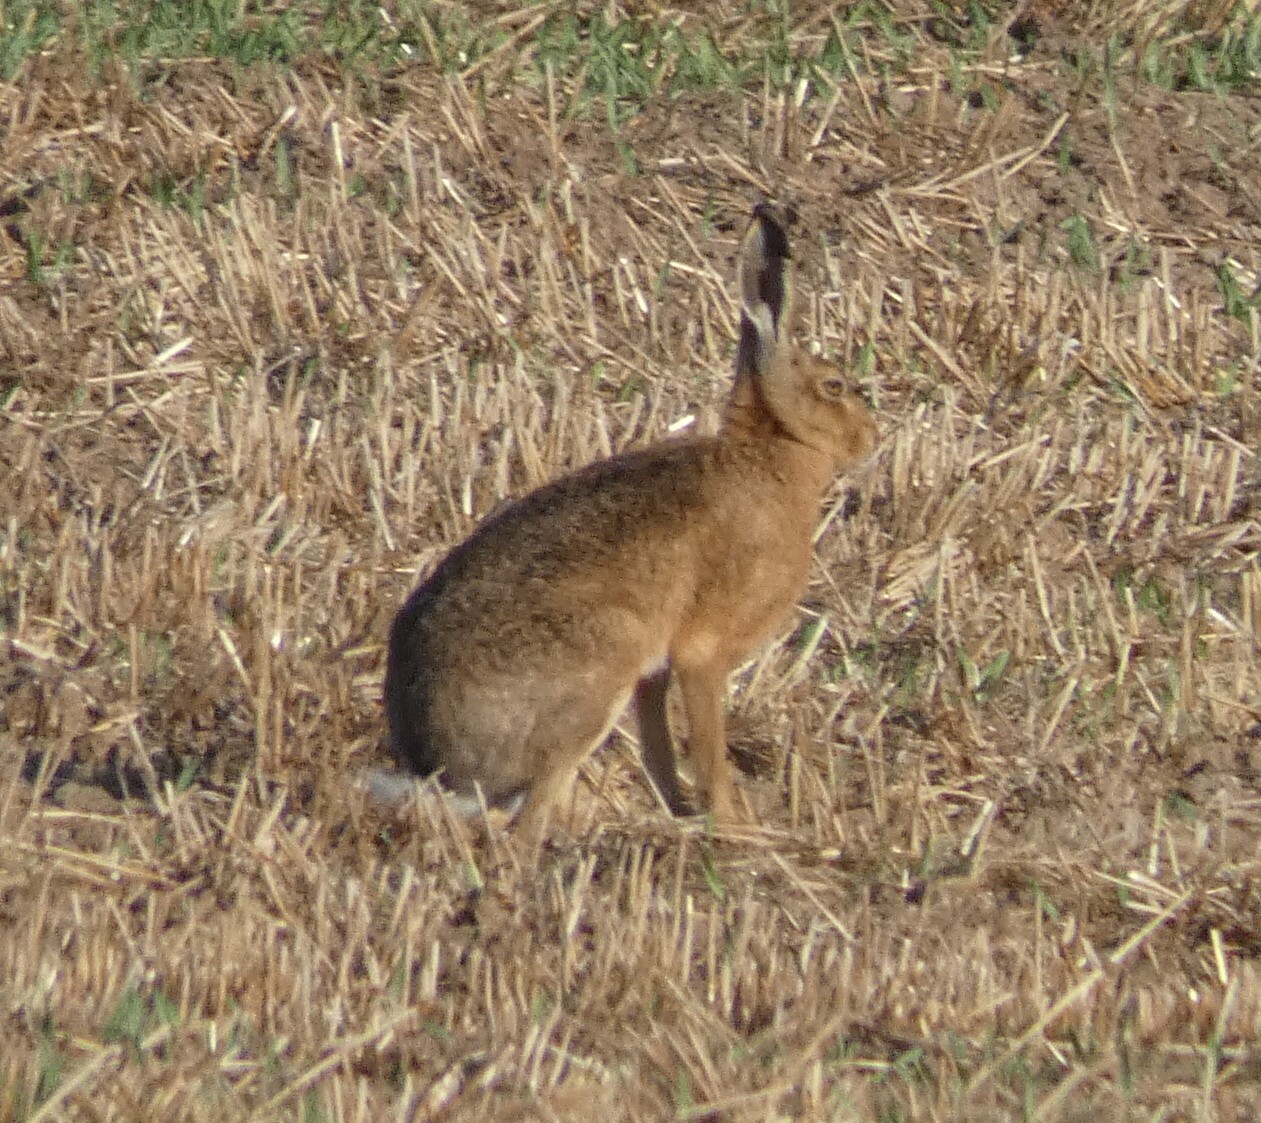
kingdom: Animalia
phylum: Chordata
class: Mammalia
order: Lagomorpha
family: Leporidae
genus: Lepus
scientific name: Lepus europaeus
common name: European hare
